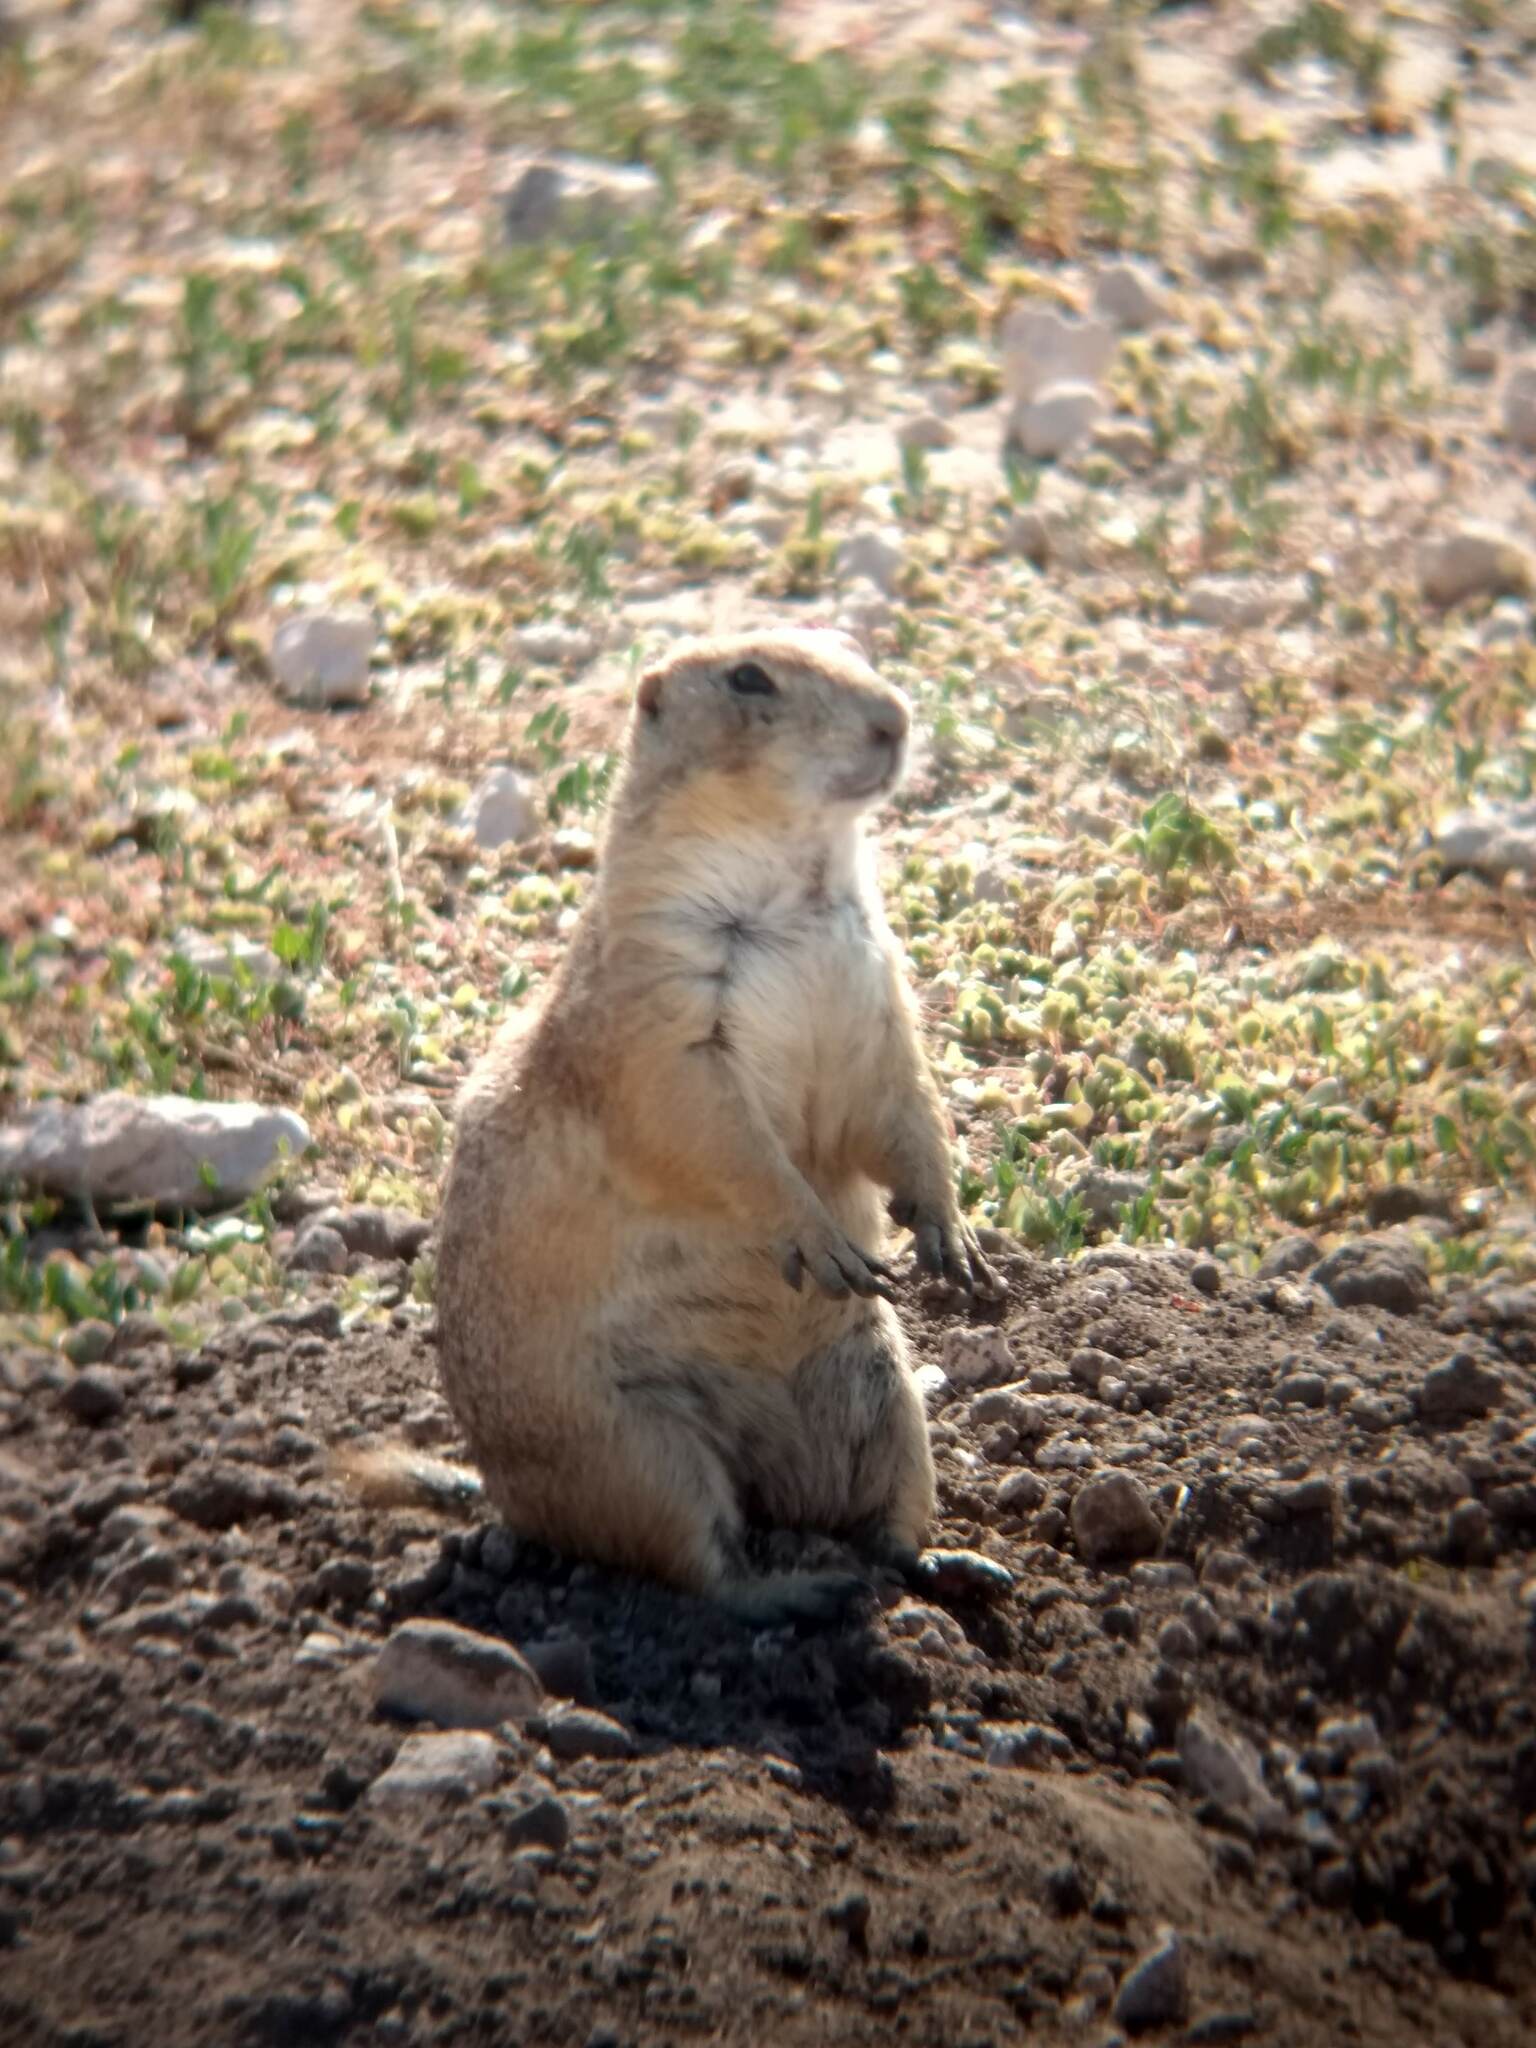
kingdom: Animalia
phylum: Chordata
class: Mammalia
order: Rodentia
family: Sciuridae
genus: Cynomys
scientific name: Cynomys ludovicianus
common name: Black-tailed prairie dog
